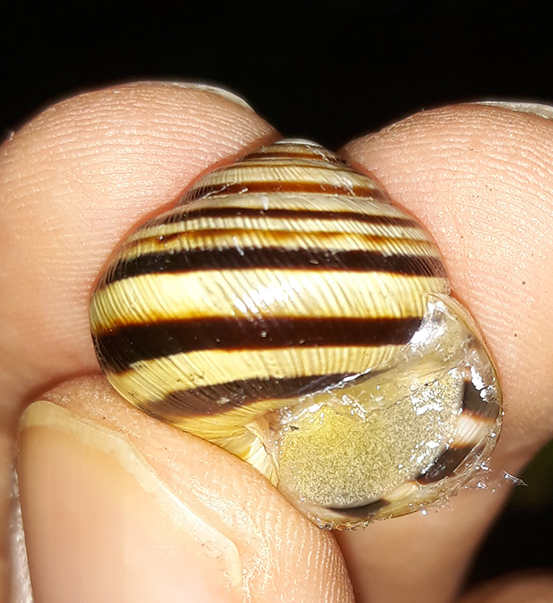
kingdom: Animalia
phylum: Mollusca
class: Gastropoda
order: Stylommatophora
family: Helicidae
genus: Caucasotachea
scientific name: Caucasotachea vindobonensis
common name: European helicid land snail
